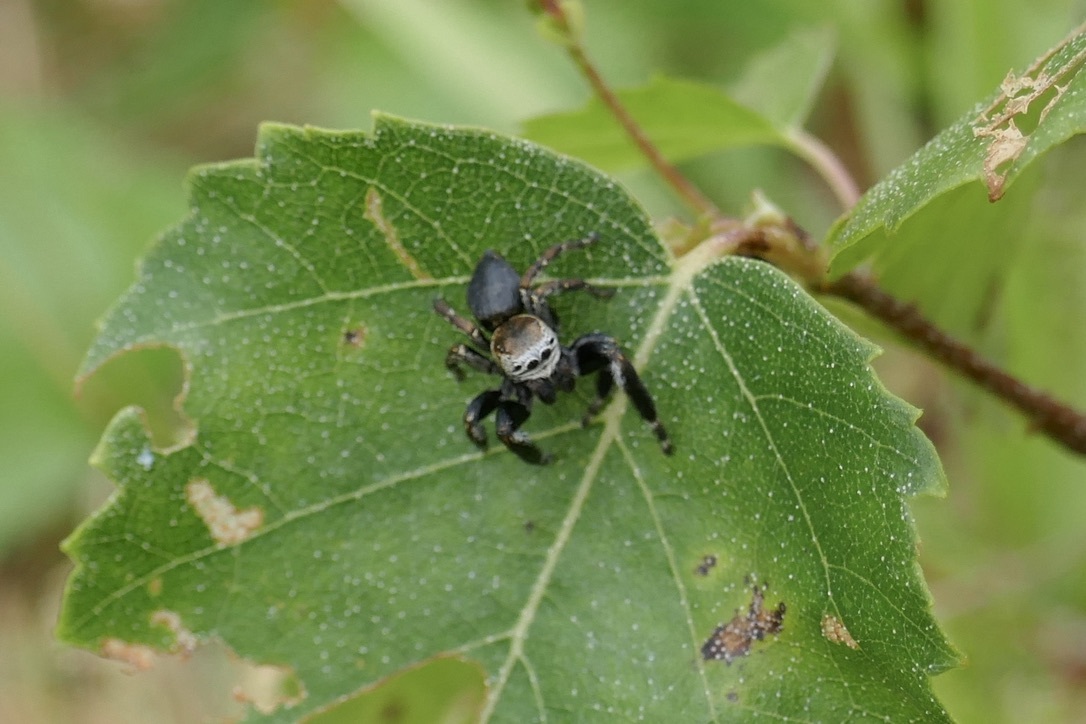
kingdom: Animalia
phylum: Arthropoda
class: Arachnida
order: Araneae
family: Salticidae
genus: Evarcha
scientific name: Evarcha arcuata
